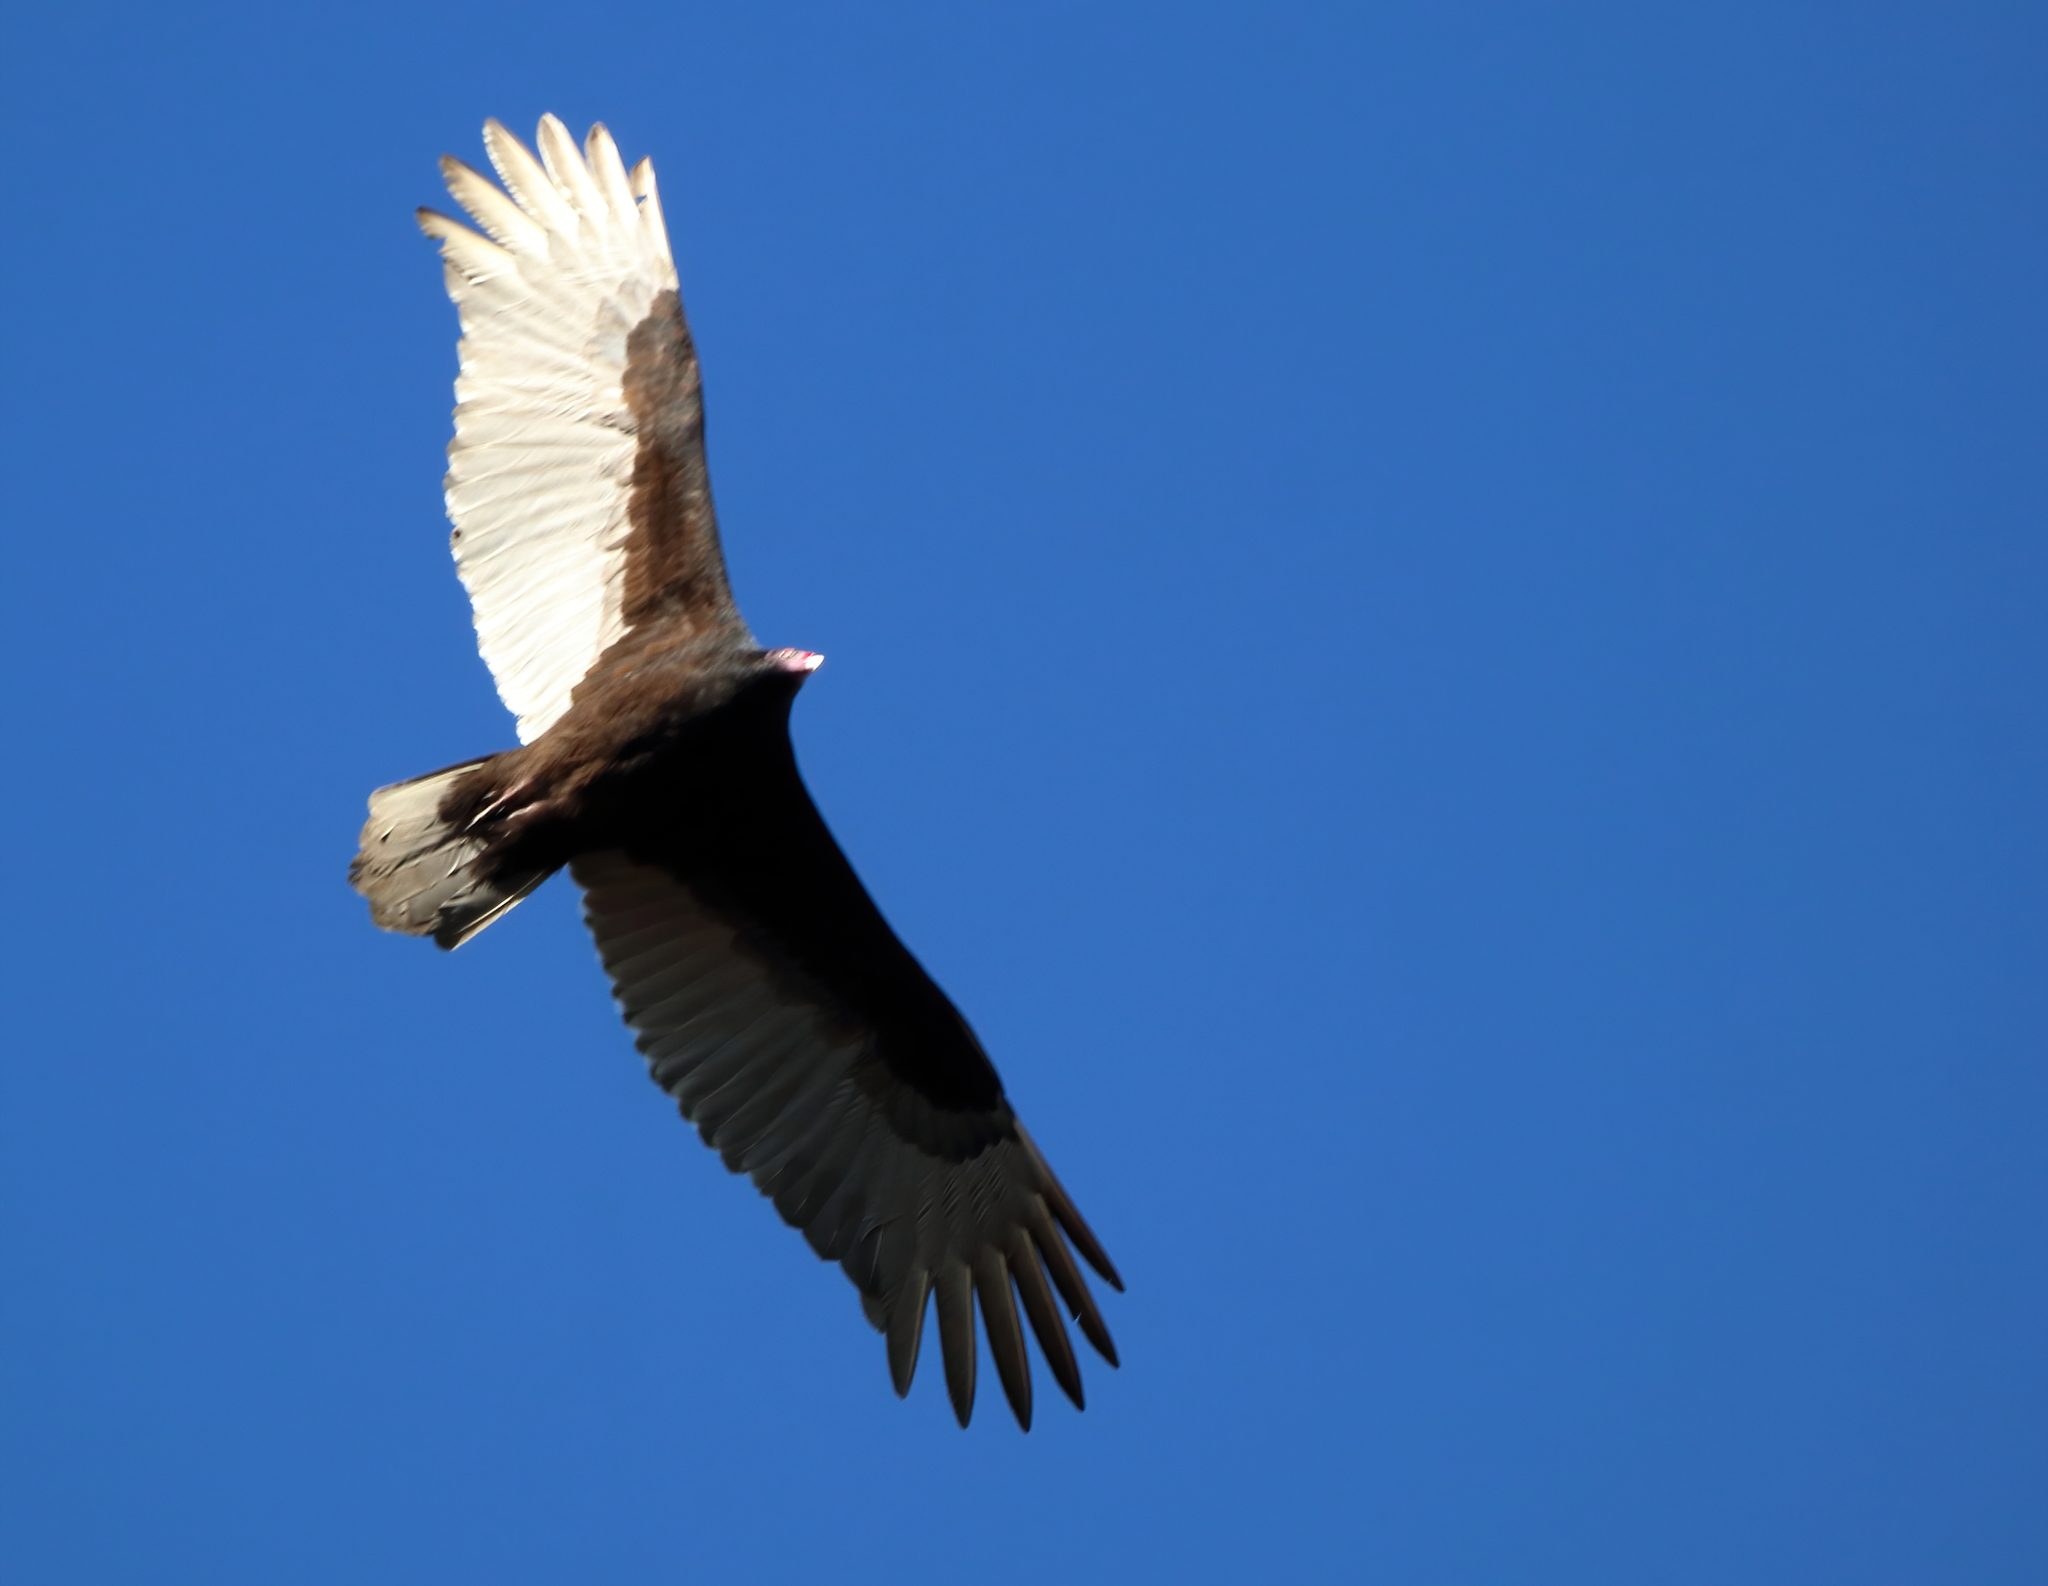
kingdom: Animalia
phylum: Chordata
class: Aves
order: Accipitriformes
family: Cathartidae
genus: Cathartes
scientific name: Cathartes aura
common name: Turkey vulture
